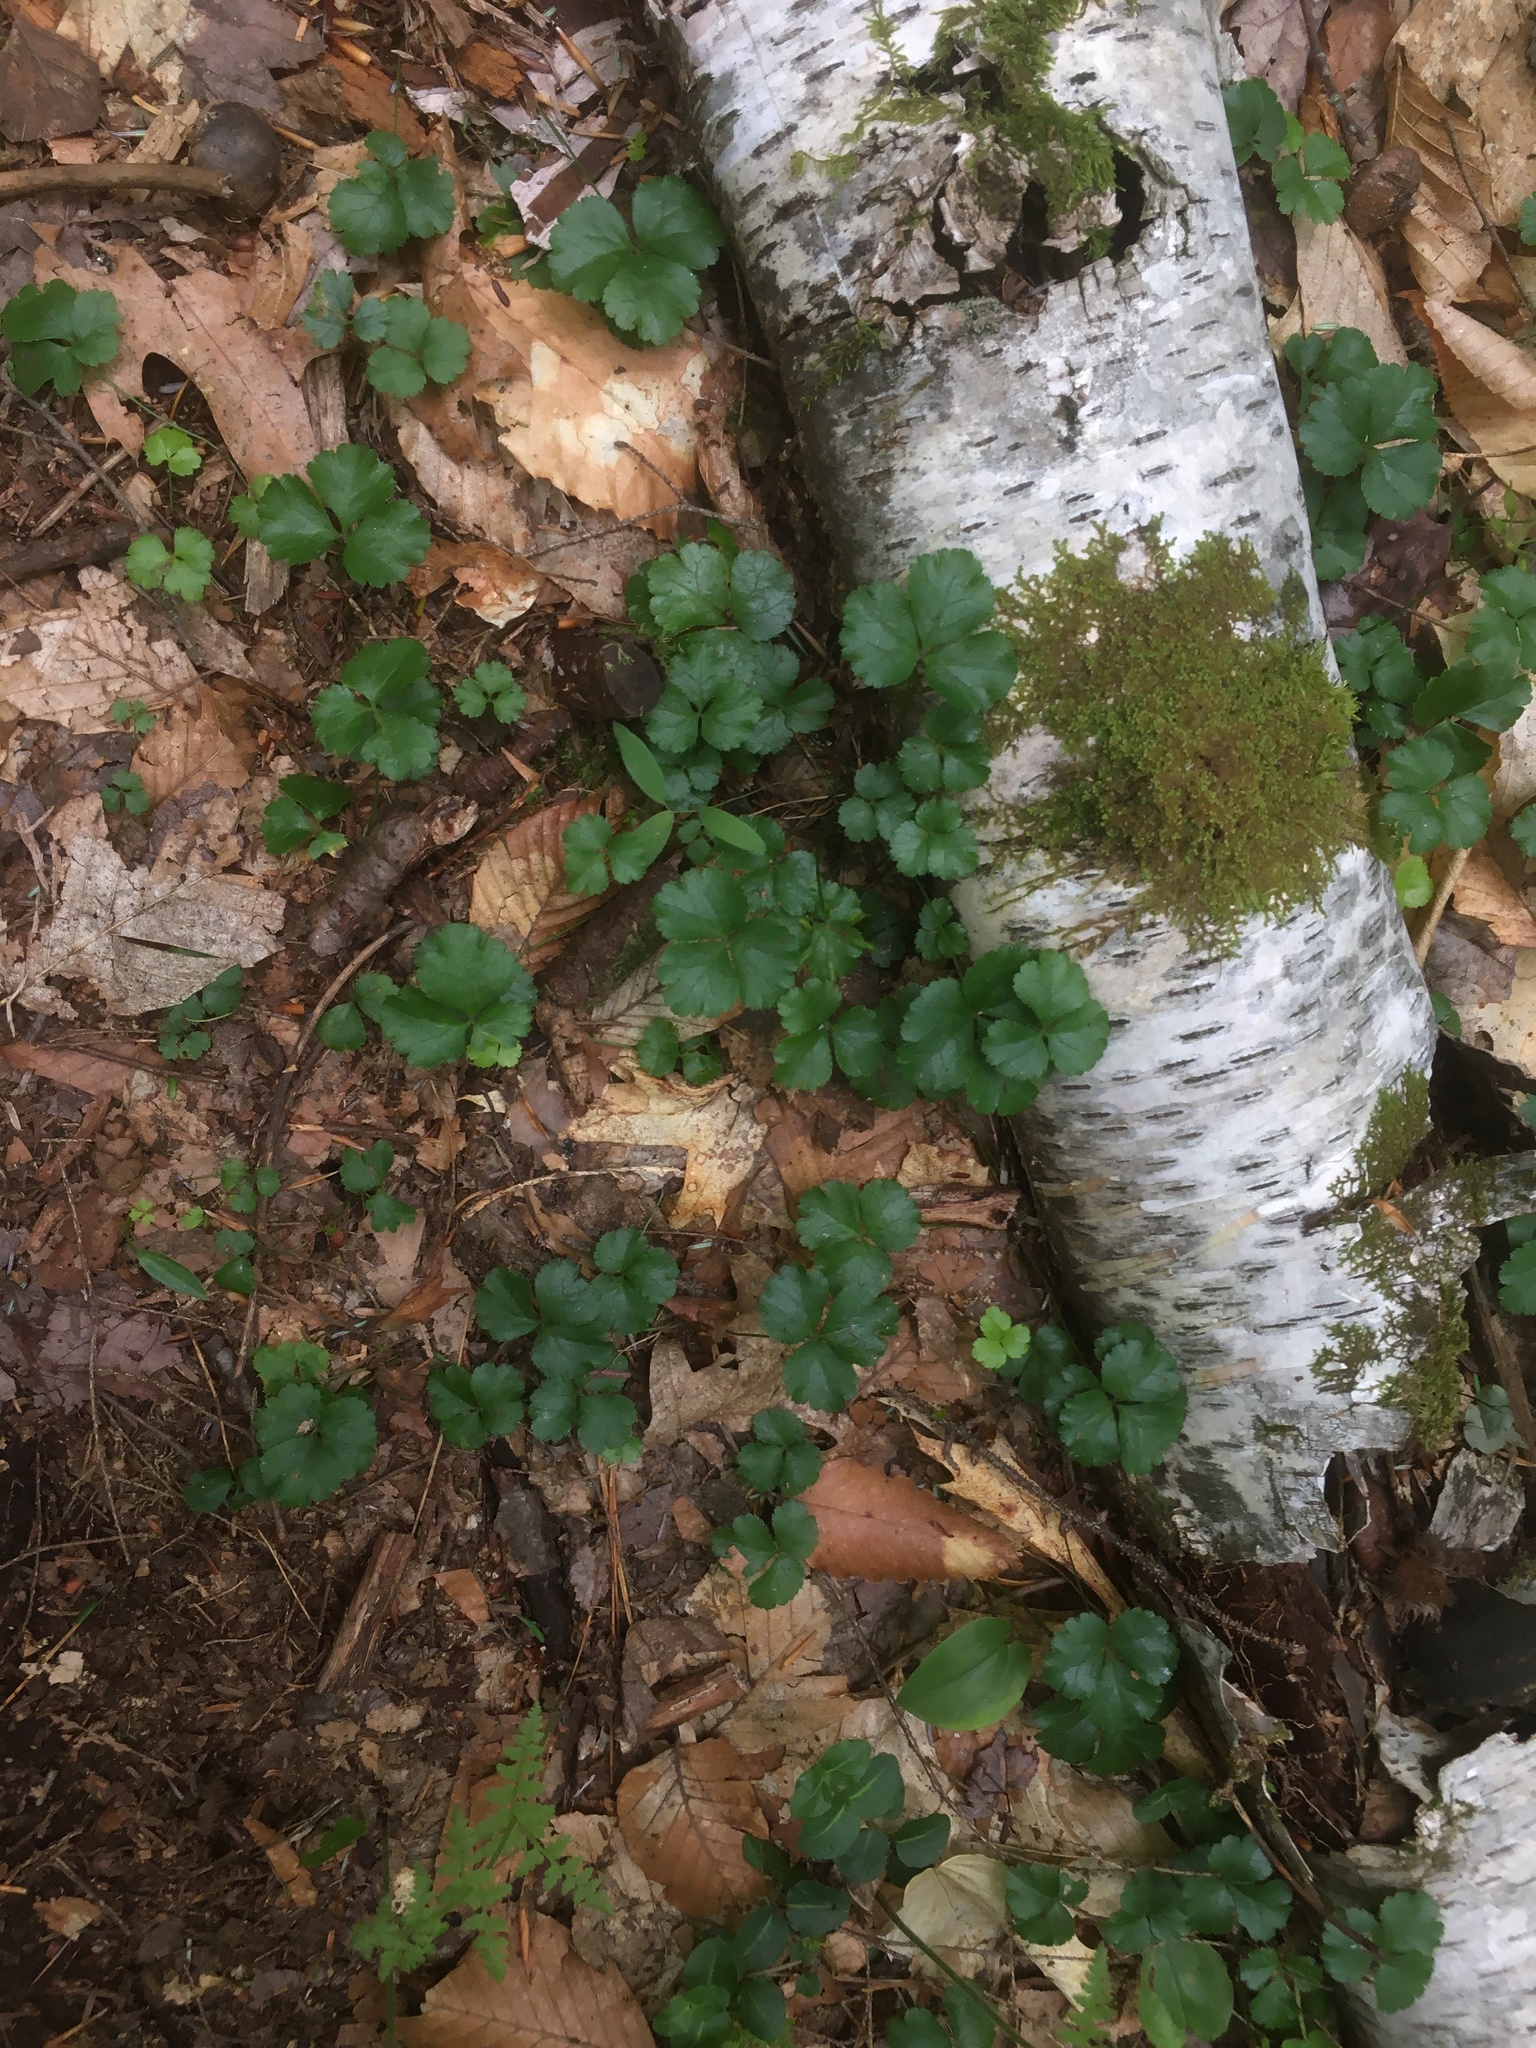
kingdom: Plantae
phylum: Tracheophyta
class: Magnoliopsida
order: Ranunculales
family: Ranunculaceae
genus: Coptis
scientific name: Coptis trifolia
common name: Canker-root
